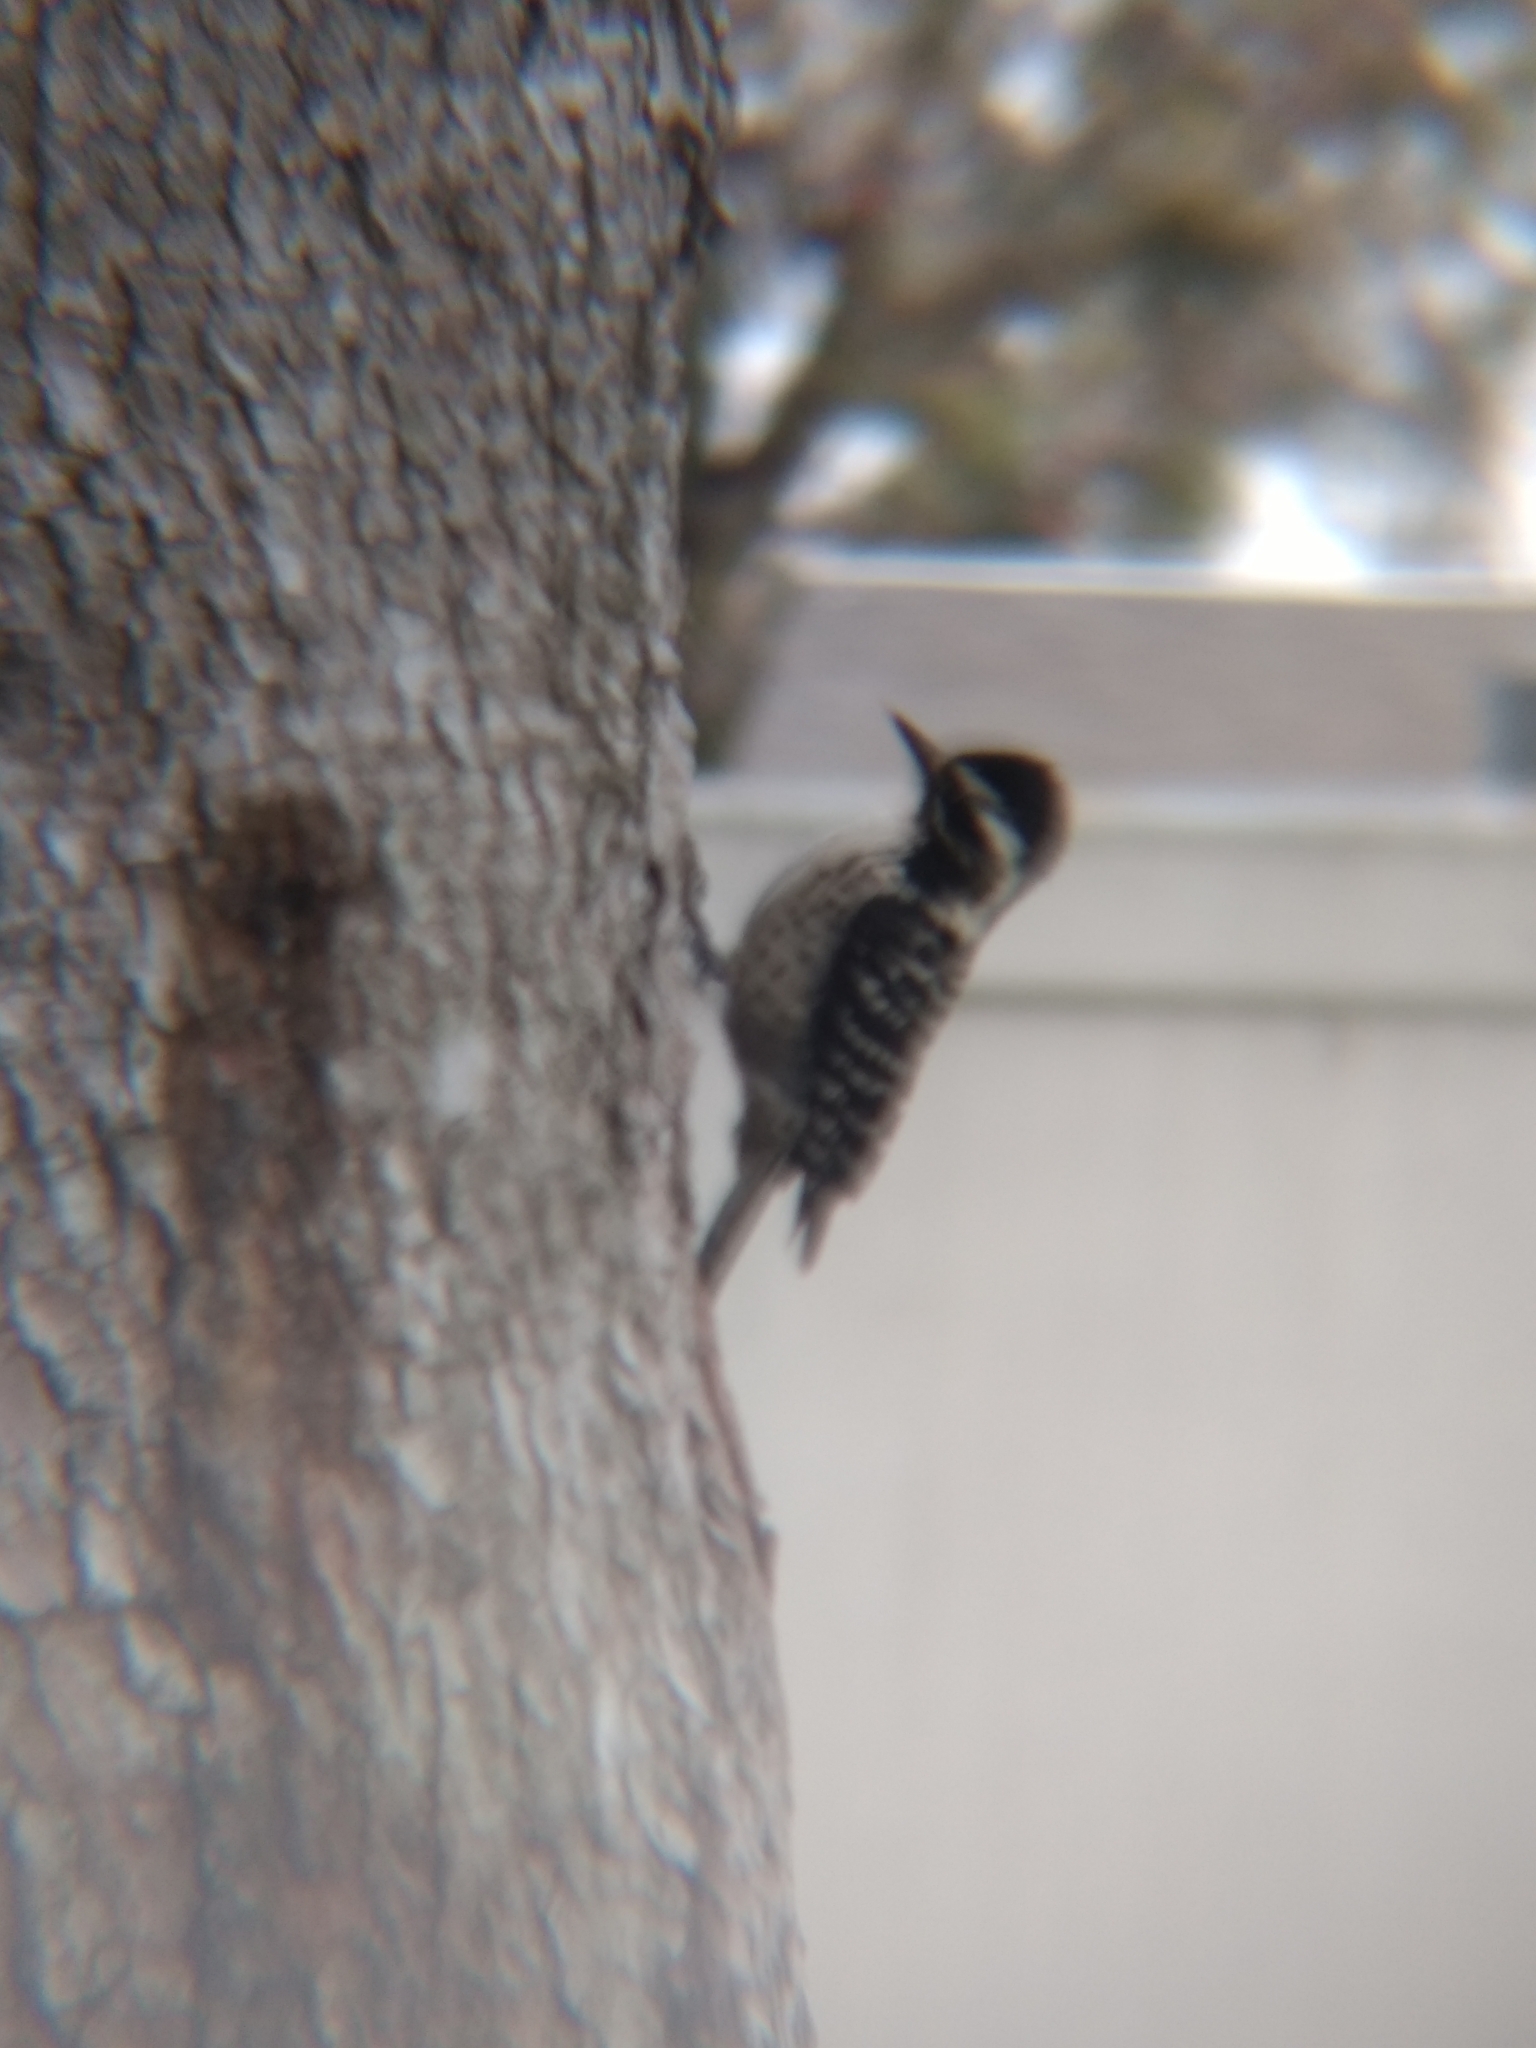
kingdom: Animalia
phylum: Chordata
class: Aves
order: Piciformes
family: Picidae
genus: Dryobates
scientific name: Dryobates nuttallii
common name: Nuttall's woodpecker
